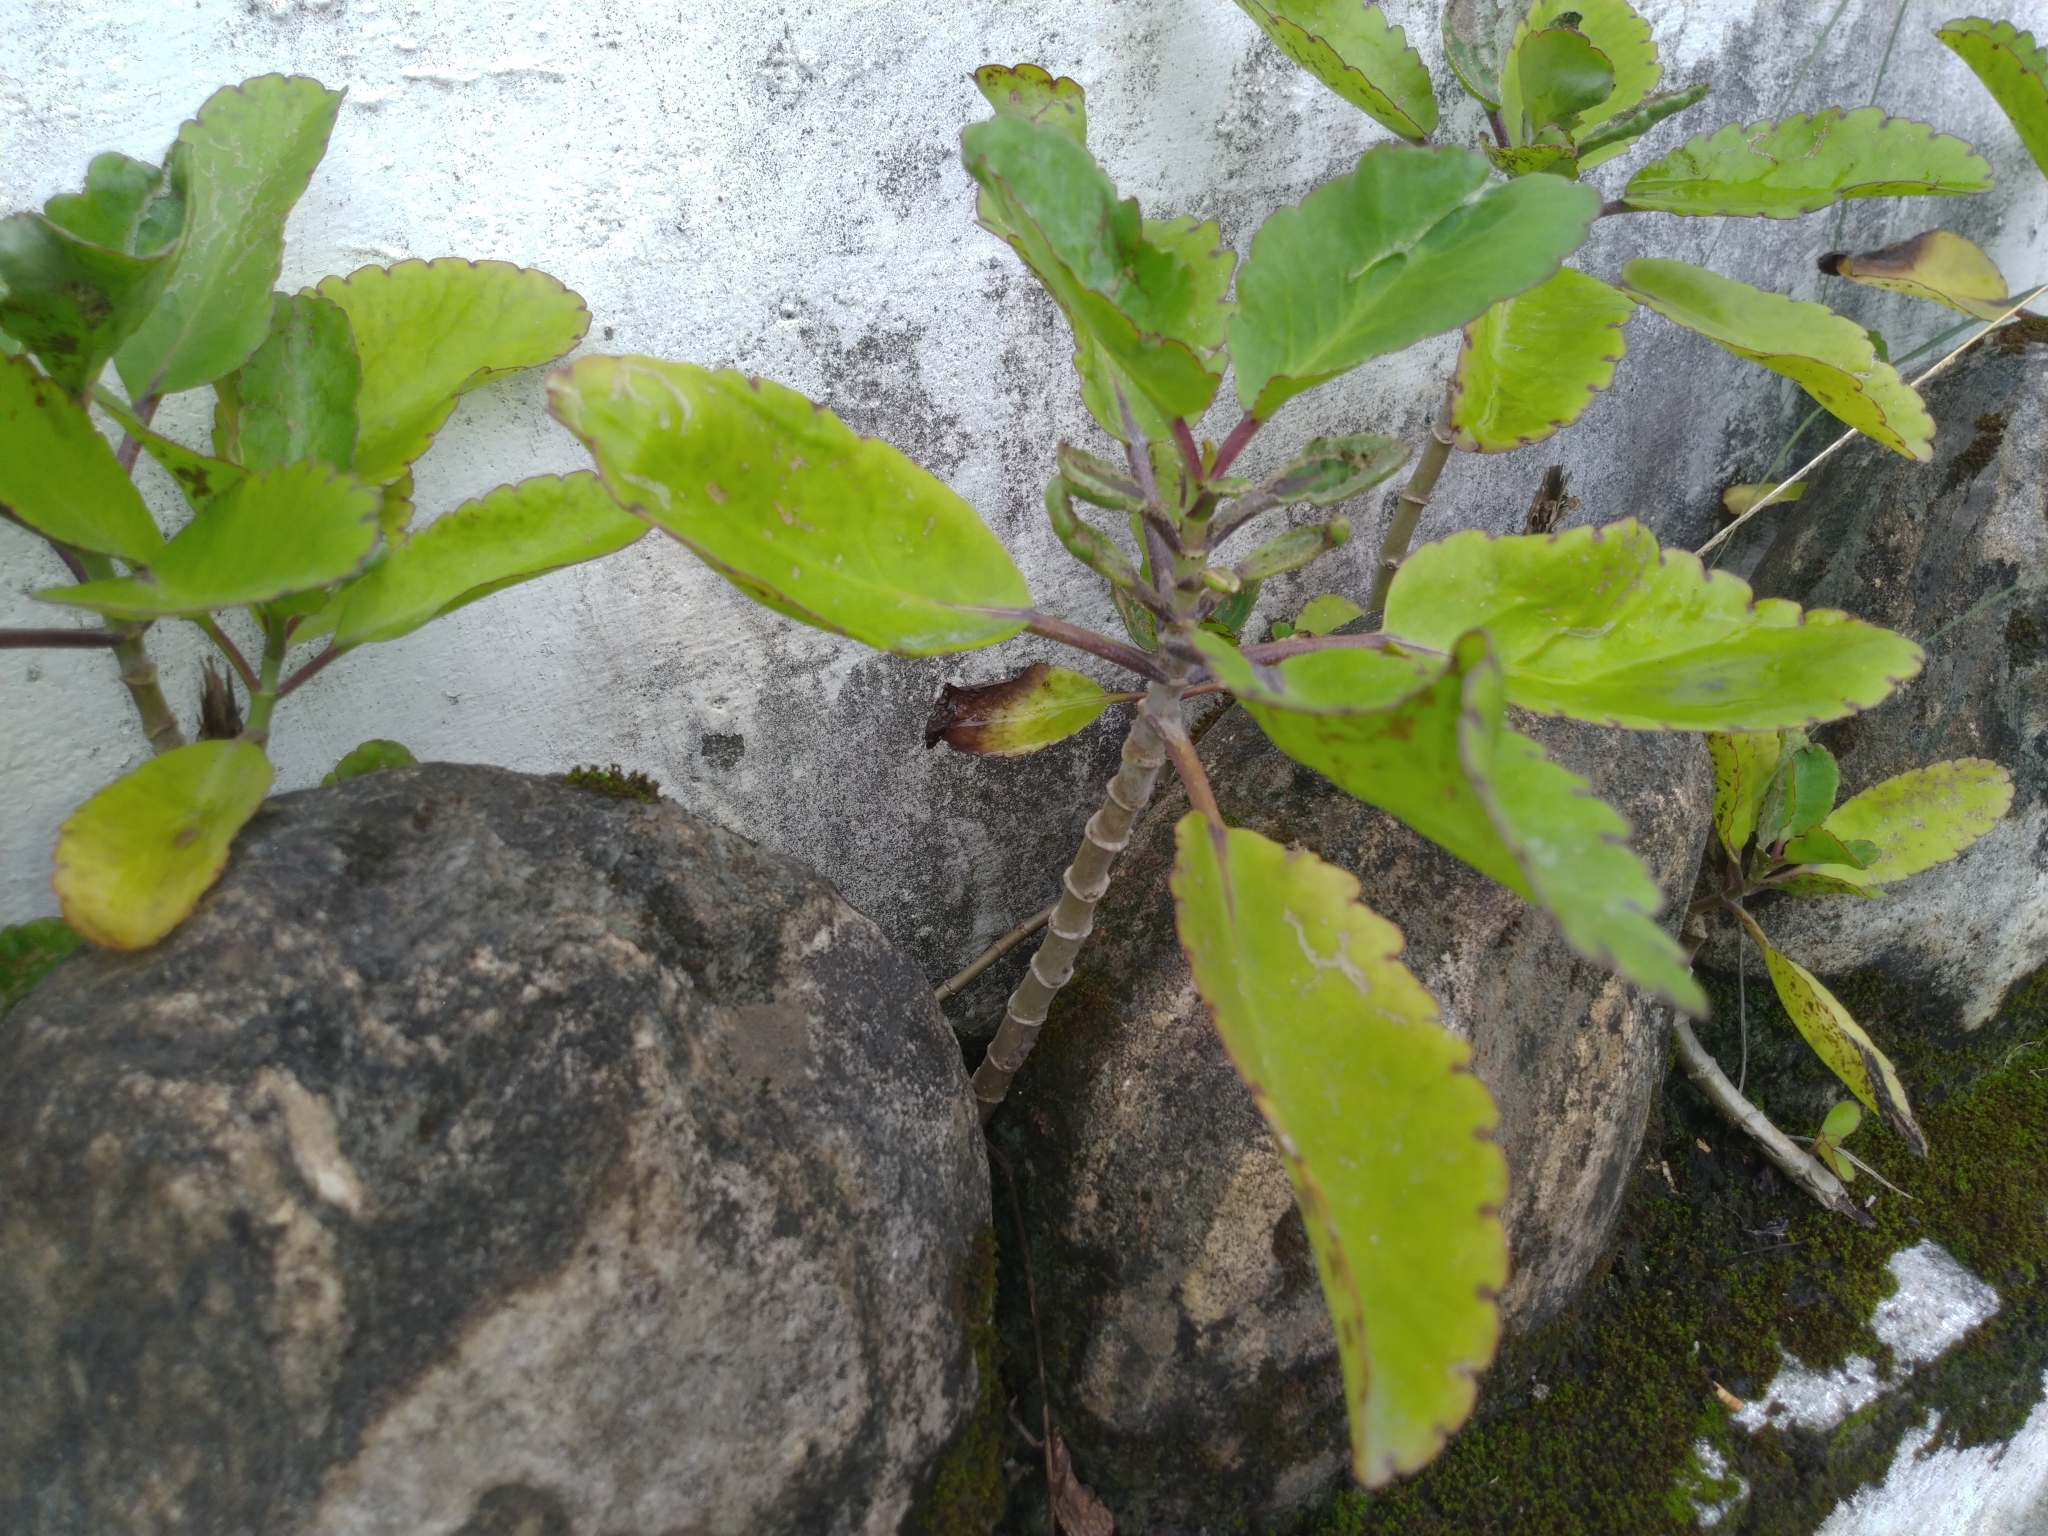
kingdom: Plantae
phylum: Tracheophyta
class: Magnoliopsida
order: Saxifragales
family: Crassulaceae
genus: Kalanchoe
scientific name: Kalanchoe pinnata
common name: Cathedral bells
